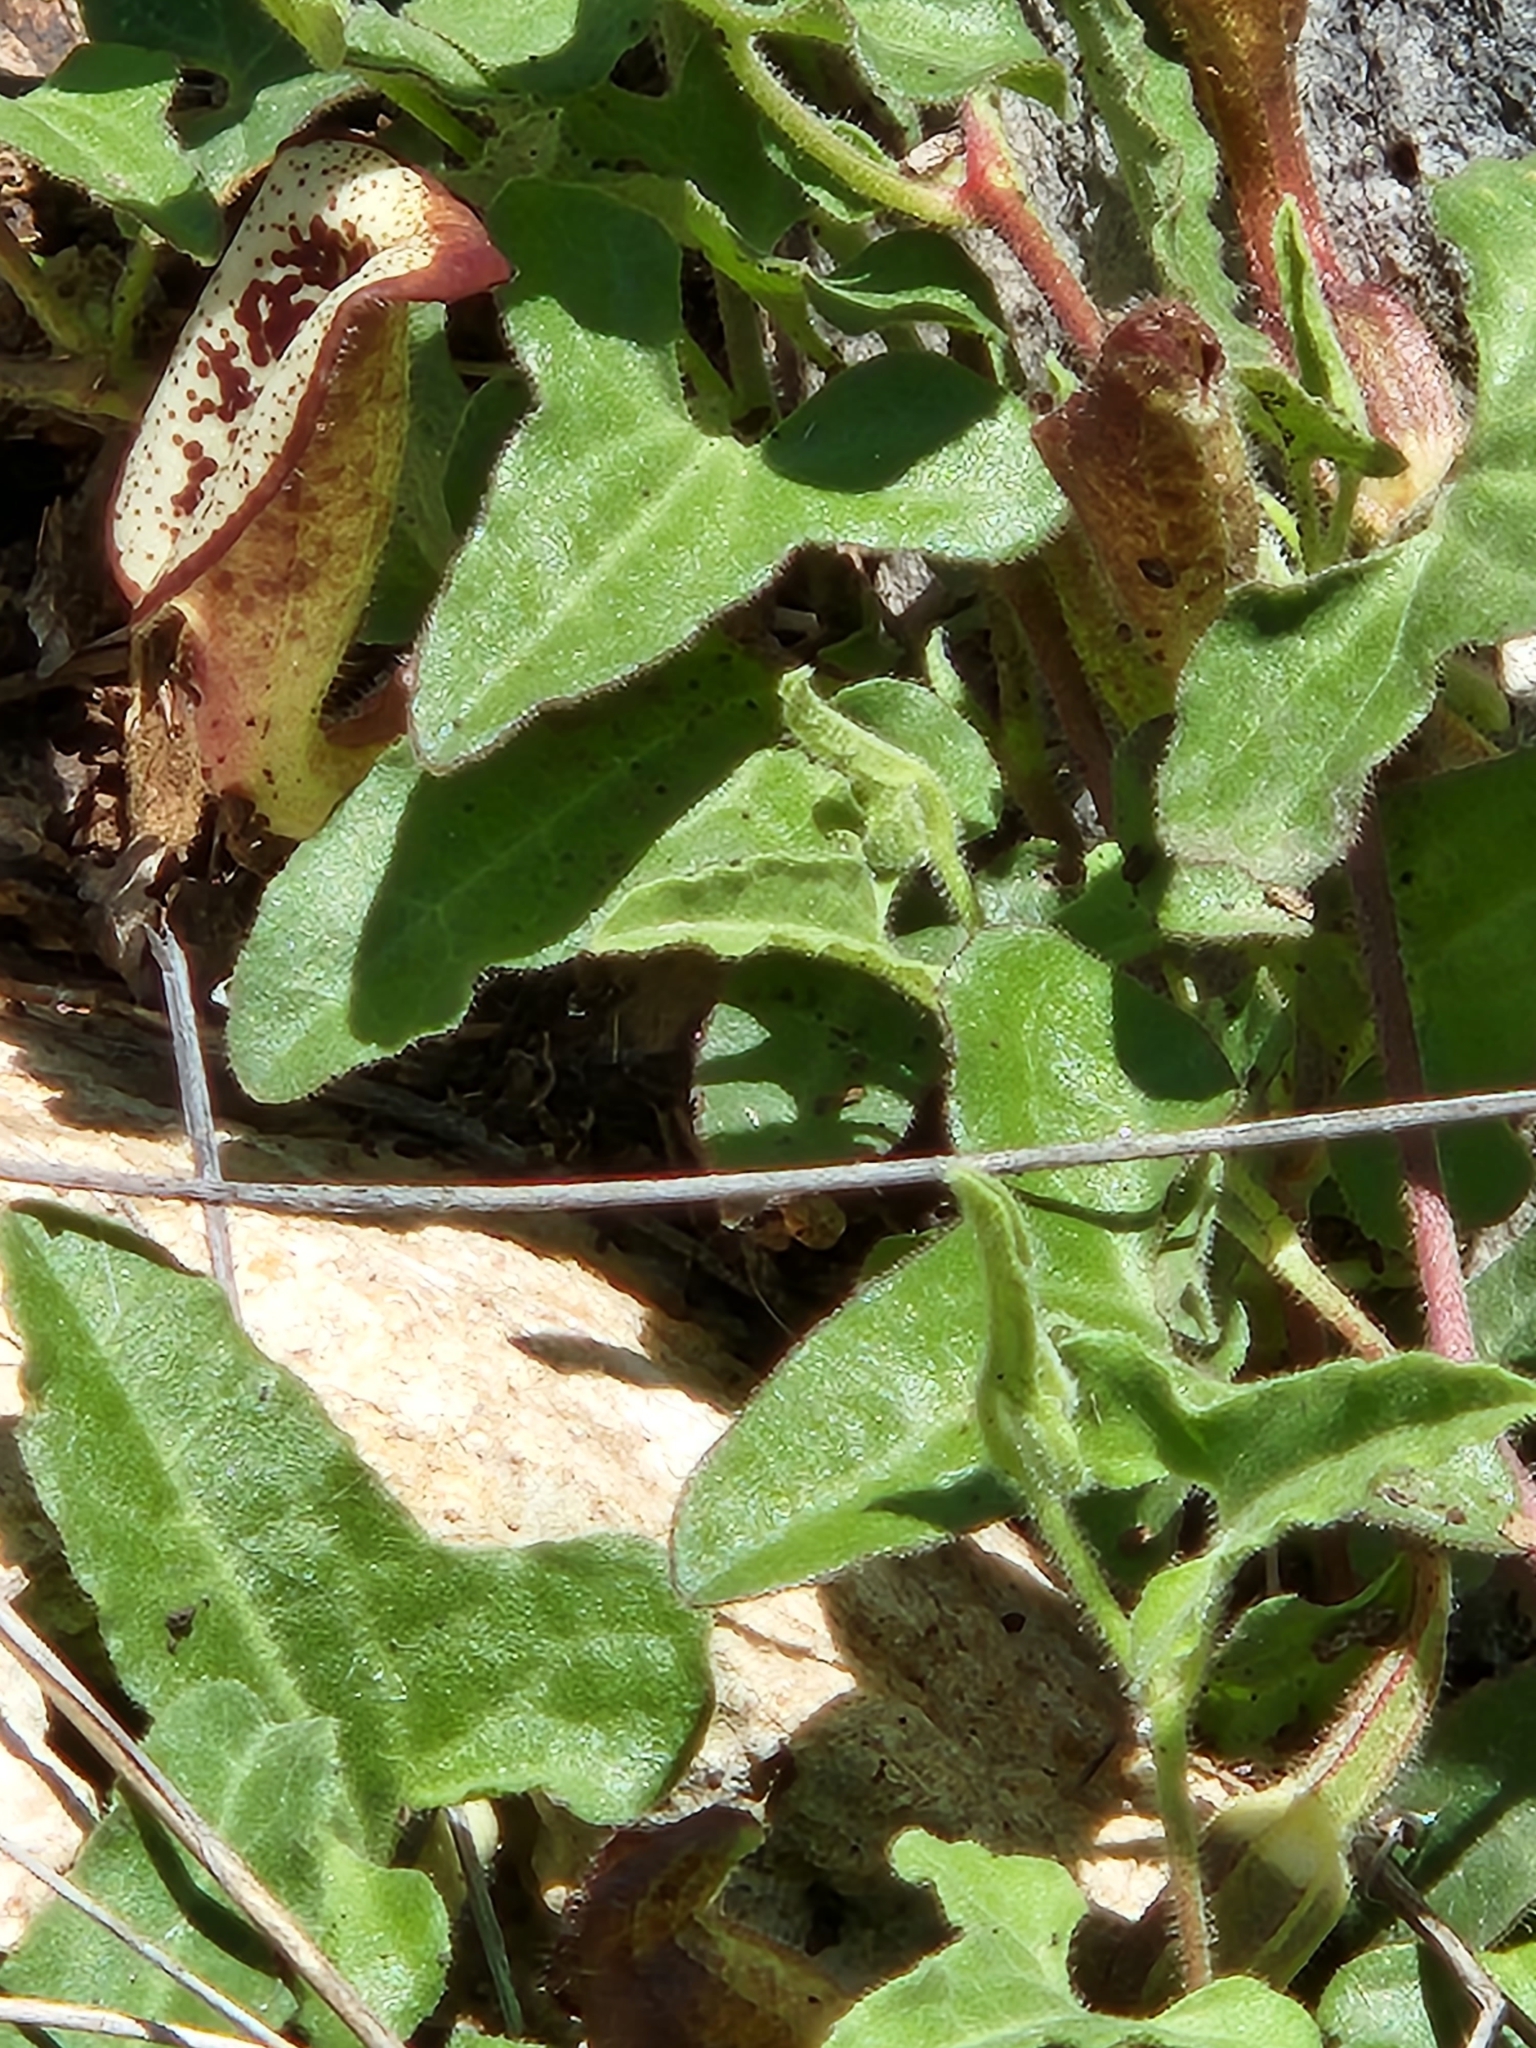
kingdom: Plantae
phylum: Tracheophyta
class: Magnoliopsida
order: Piperales
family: Aristolochiaceae
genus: Aristolochia
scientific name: Aristolochia coryi
